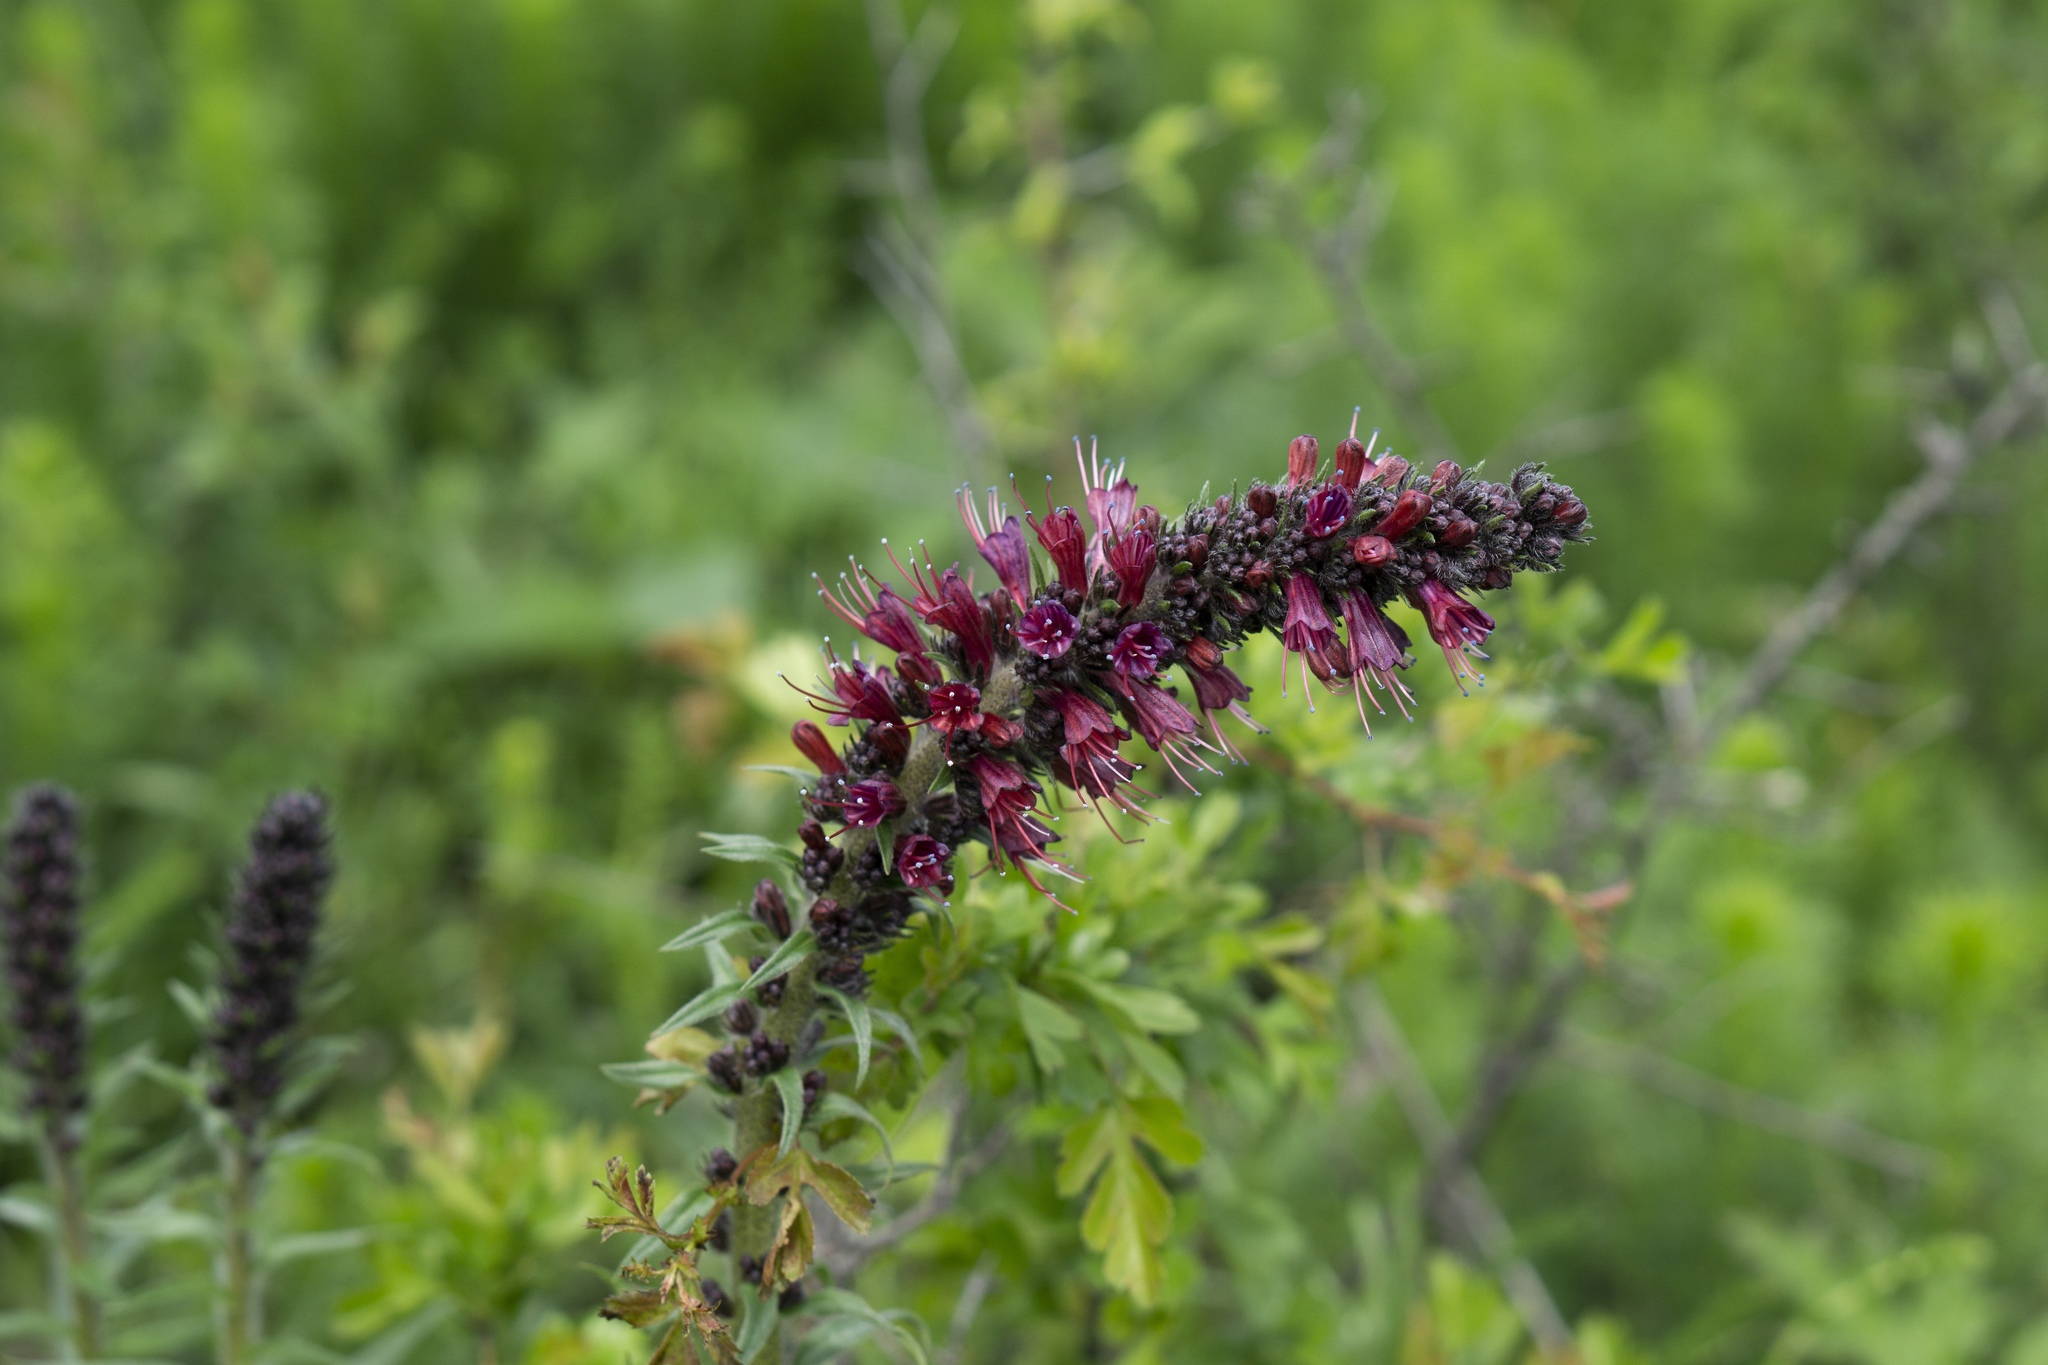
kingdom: Plantae
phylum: Tracheophyta
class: Magnoliopsida
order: Boraginales
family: Boraginaceae
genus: Pontechium
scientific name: Pontechium maculatum
